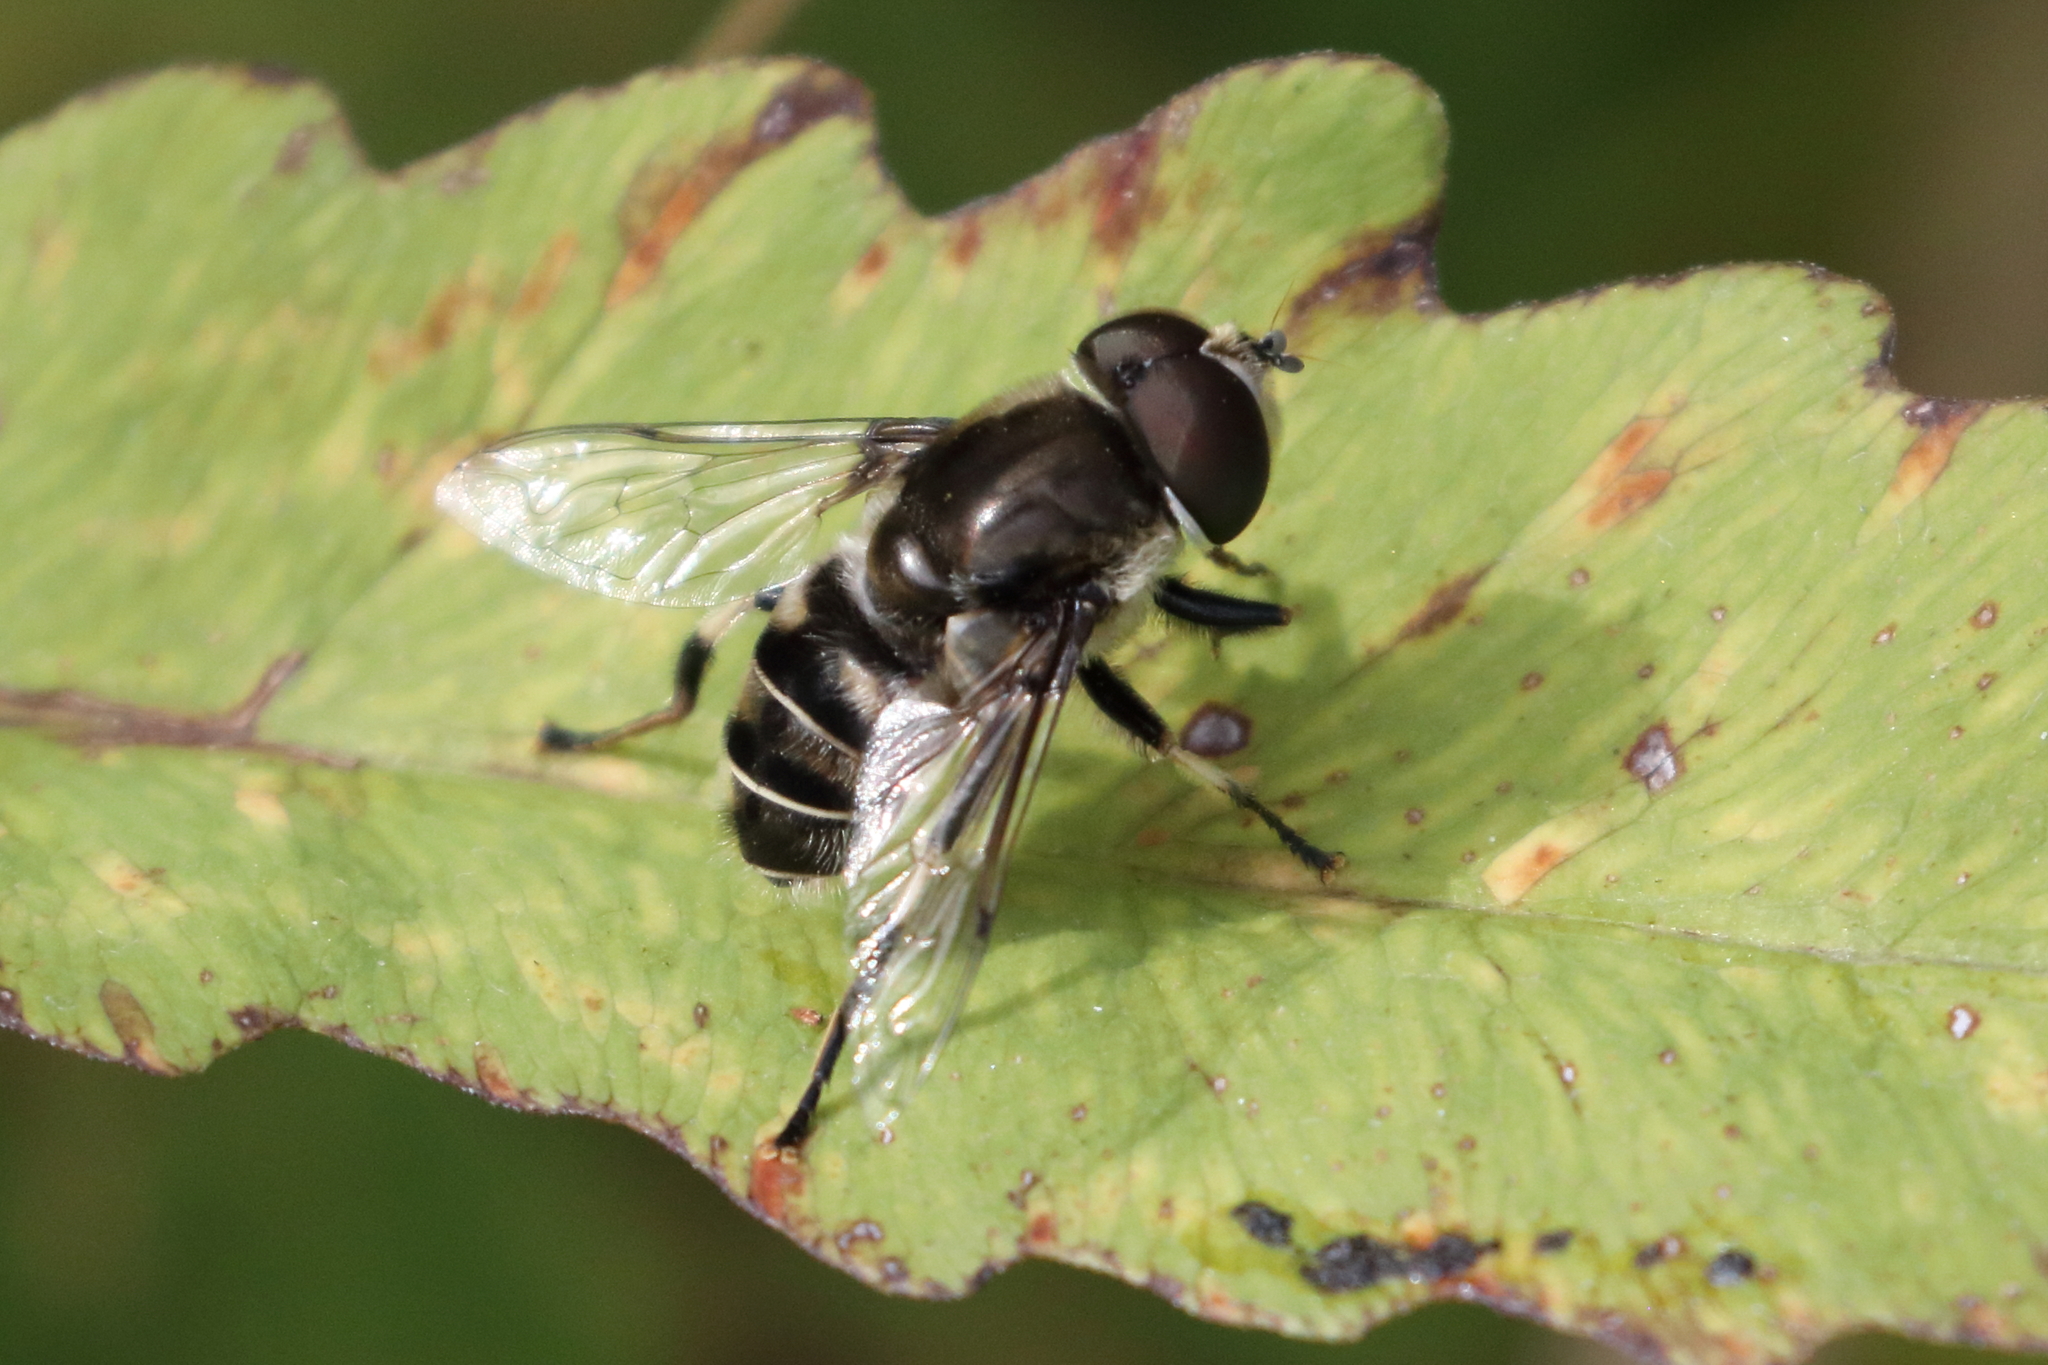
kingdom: Animalia
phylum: Arthropoda
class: Insecta
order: Diptera
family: Syrphidae
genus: Eristalis
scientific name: Eristalis dimidiata
